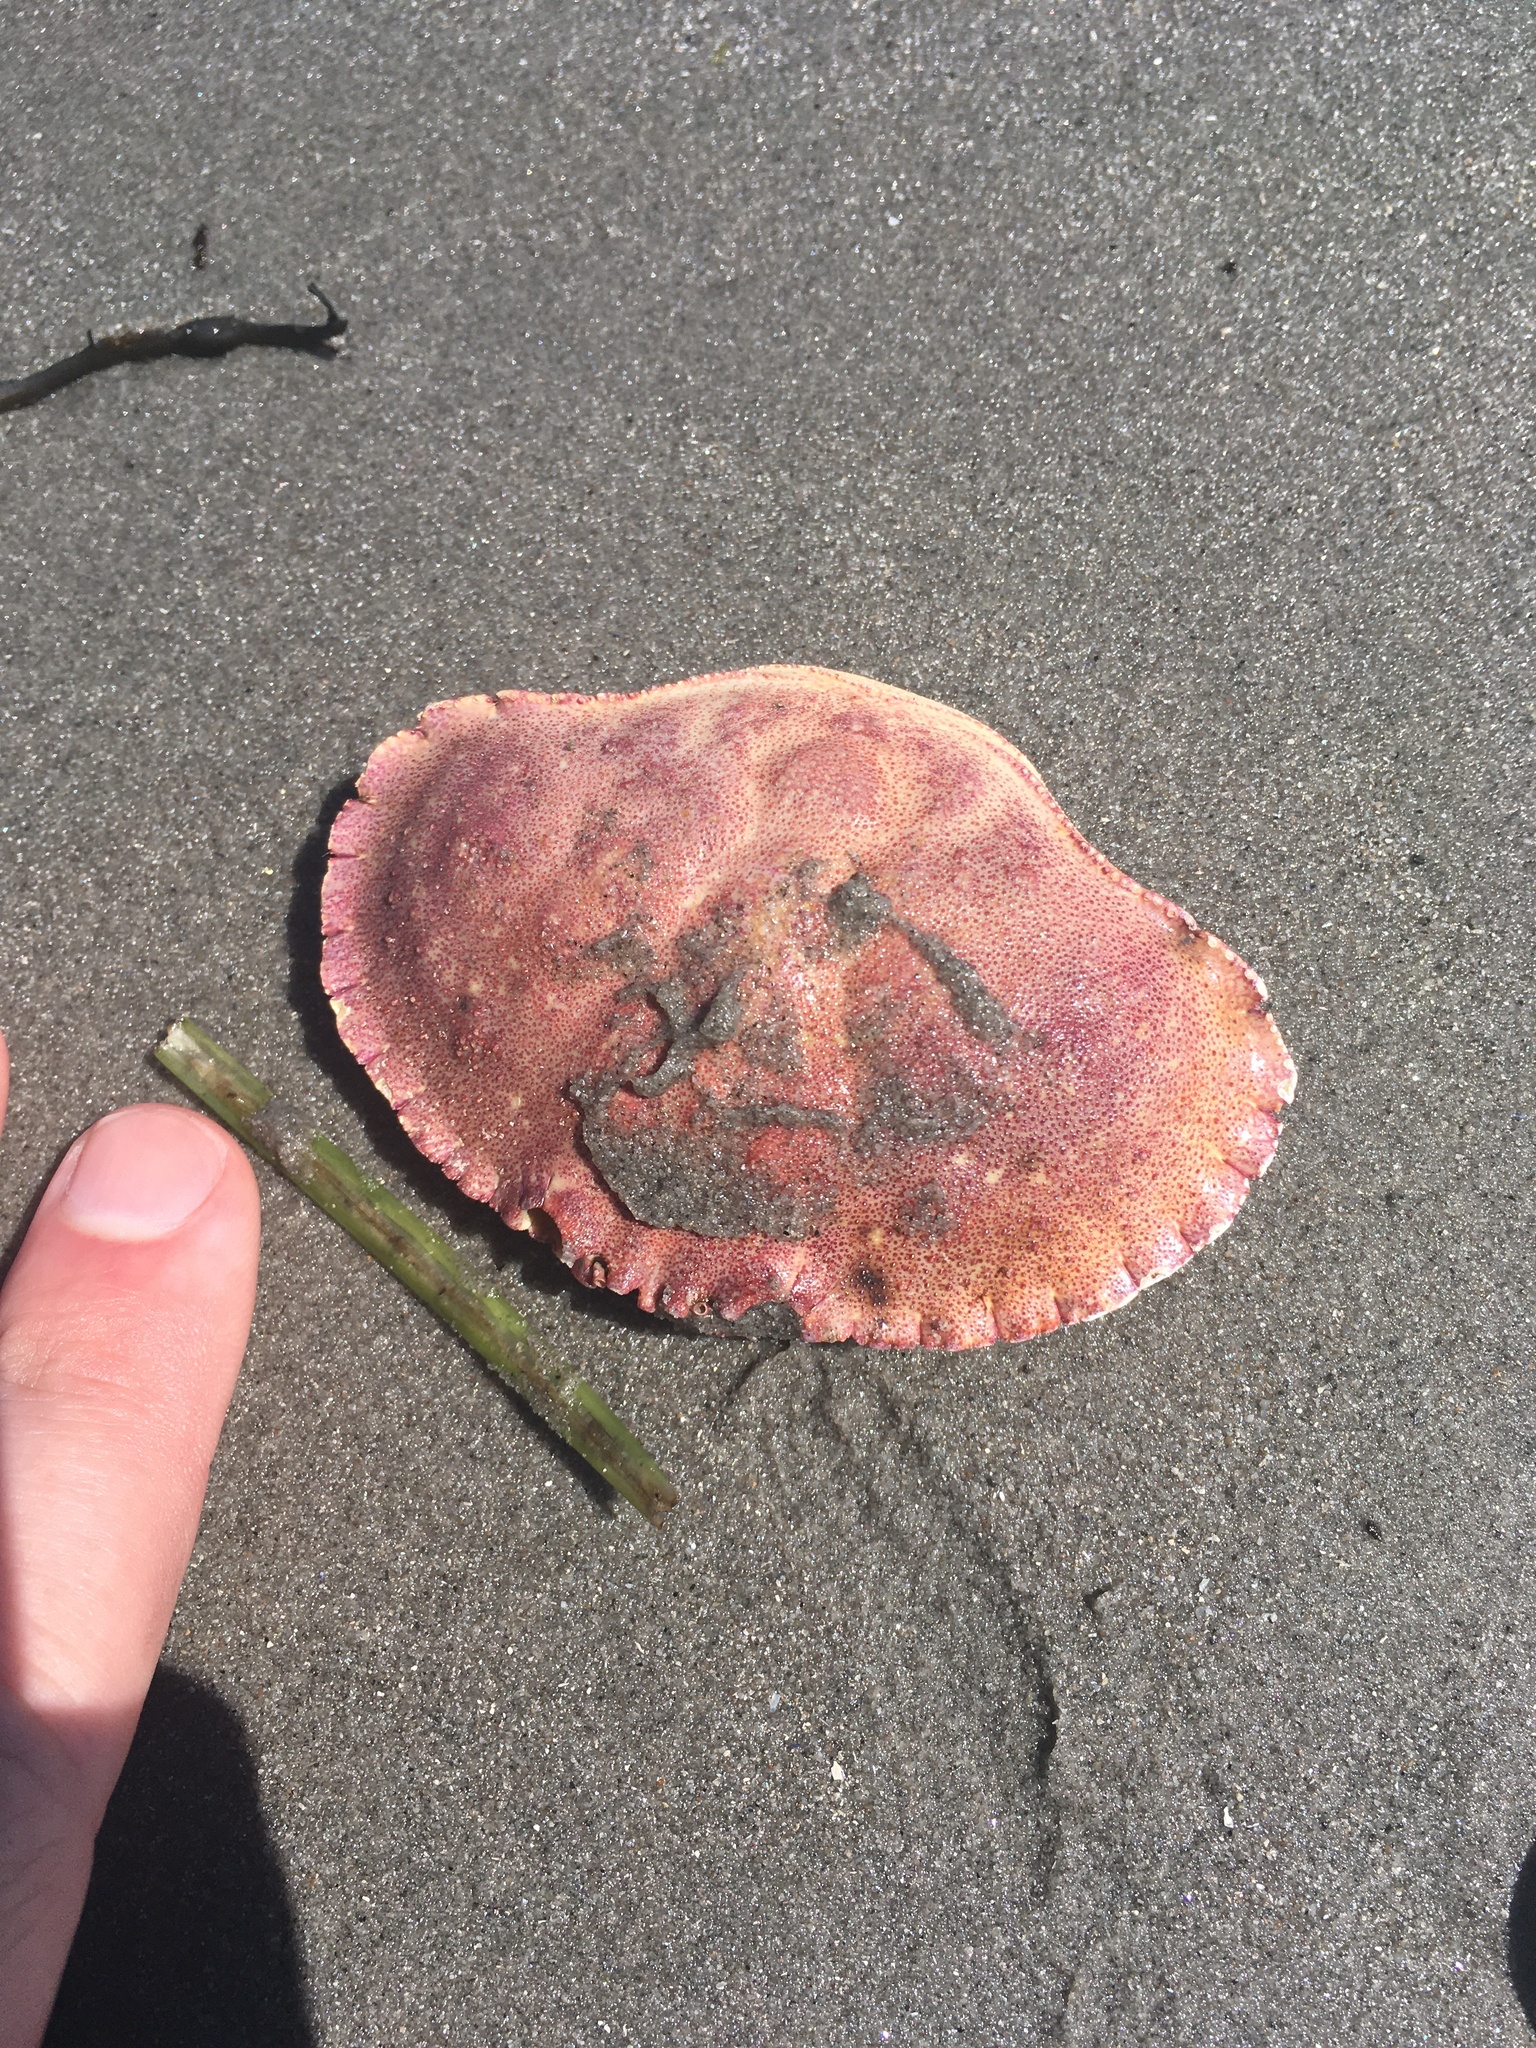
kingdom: Animalia
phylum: Arthropoda
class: Malacostraca
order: Decapoda
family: Cancridae
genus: Cancer
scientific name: Cancer borealis
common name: Jonah crab
